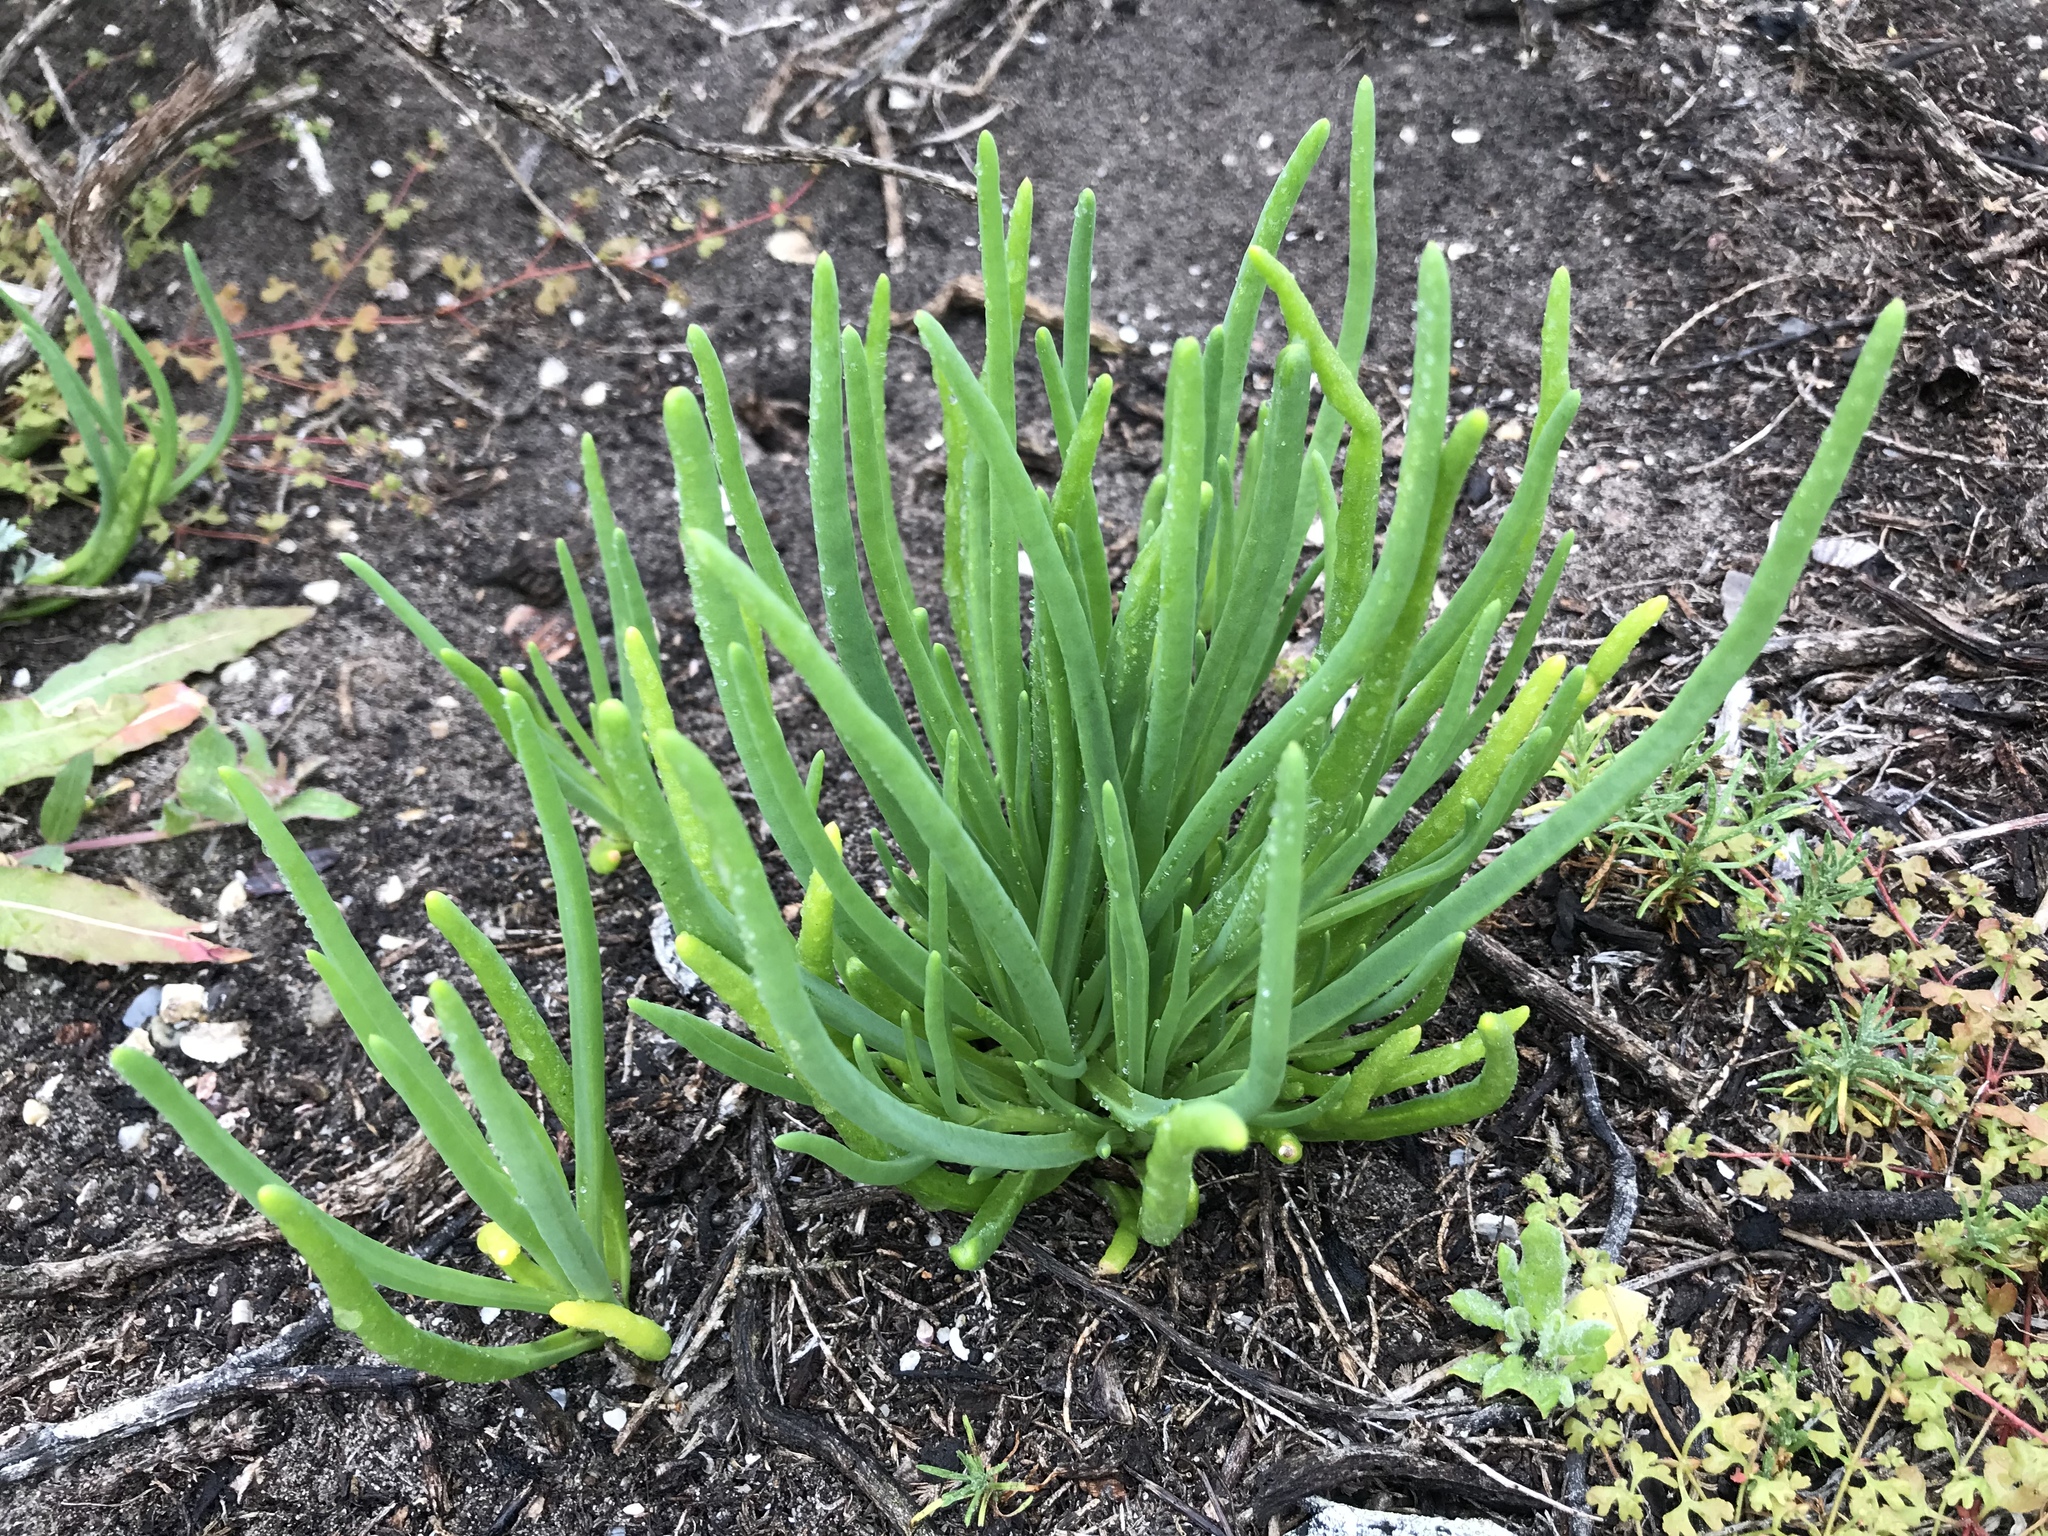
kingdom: Plantae
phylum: Tracheophyta
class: Magnoliopsida
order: Caryophyllales
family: Aizoaceae
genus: Conicosia
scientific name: Conicosia pugioniformis
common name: Narrow-leaved iceplant
